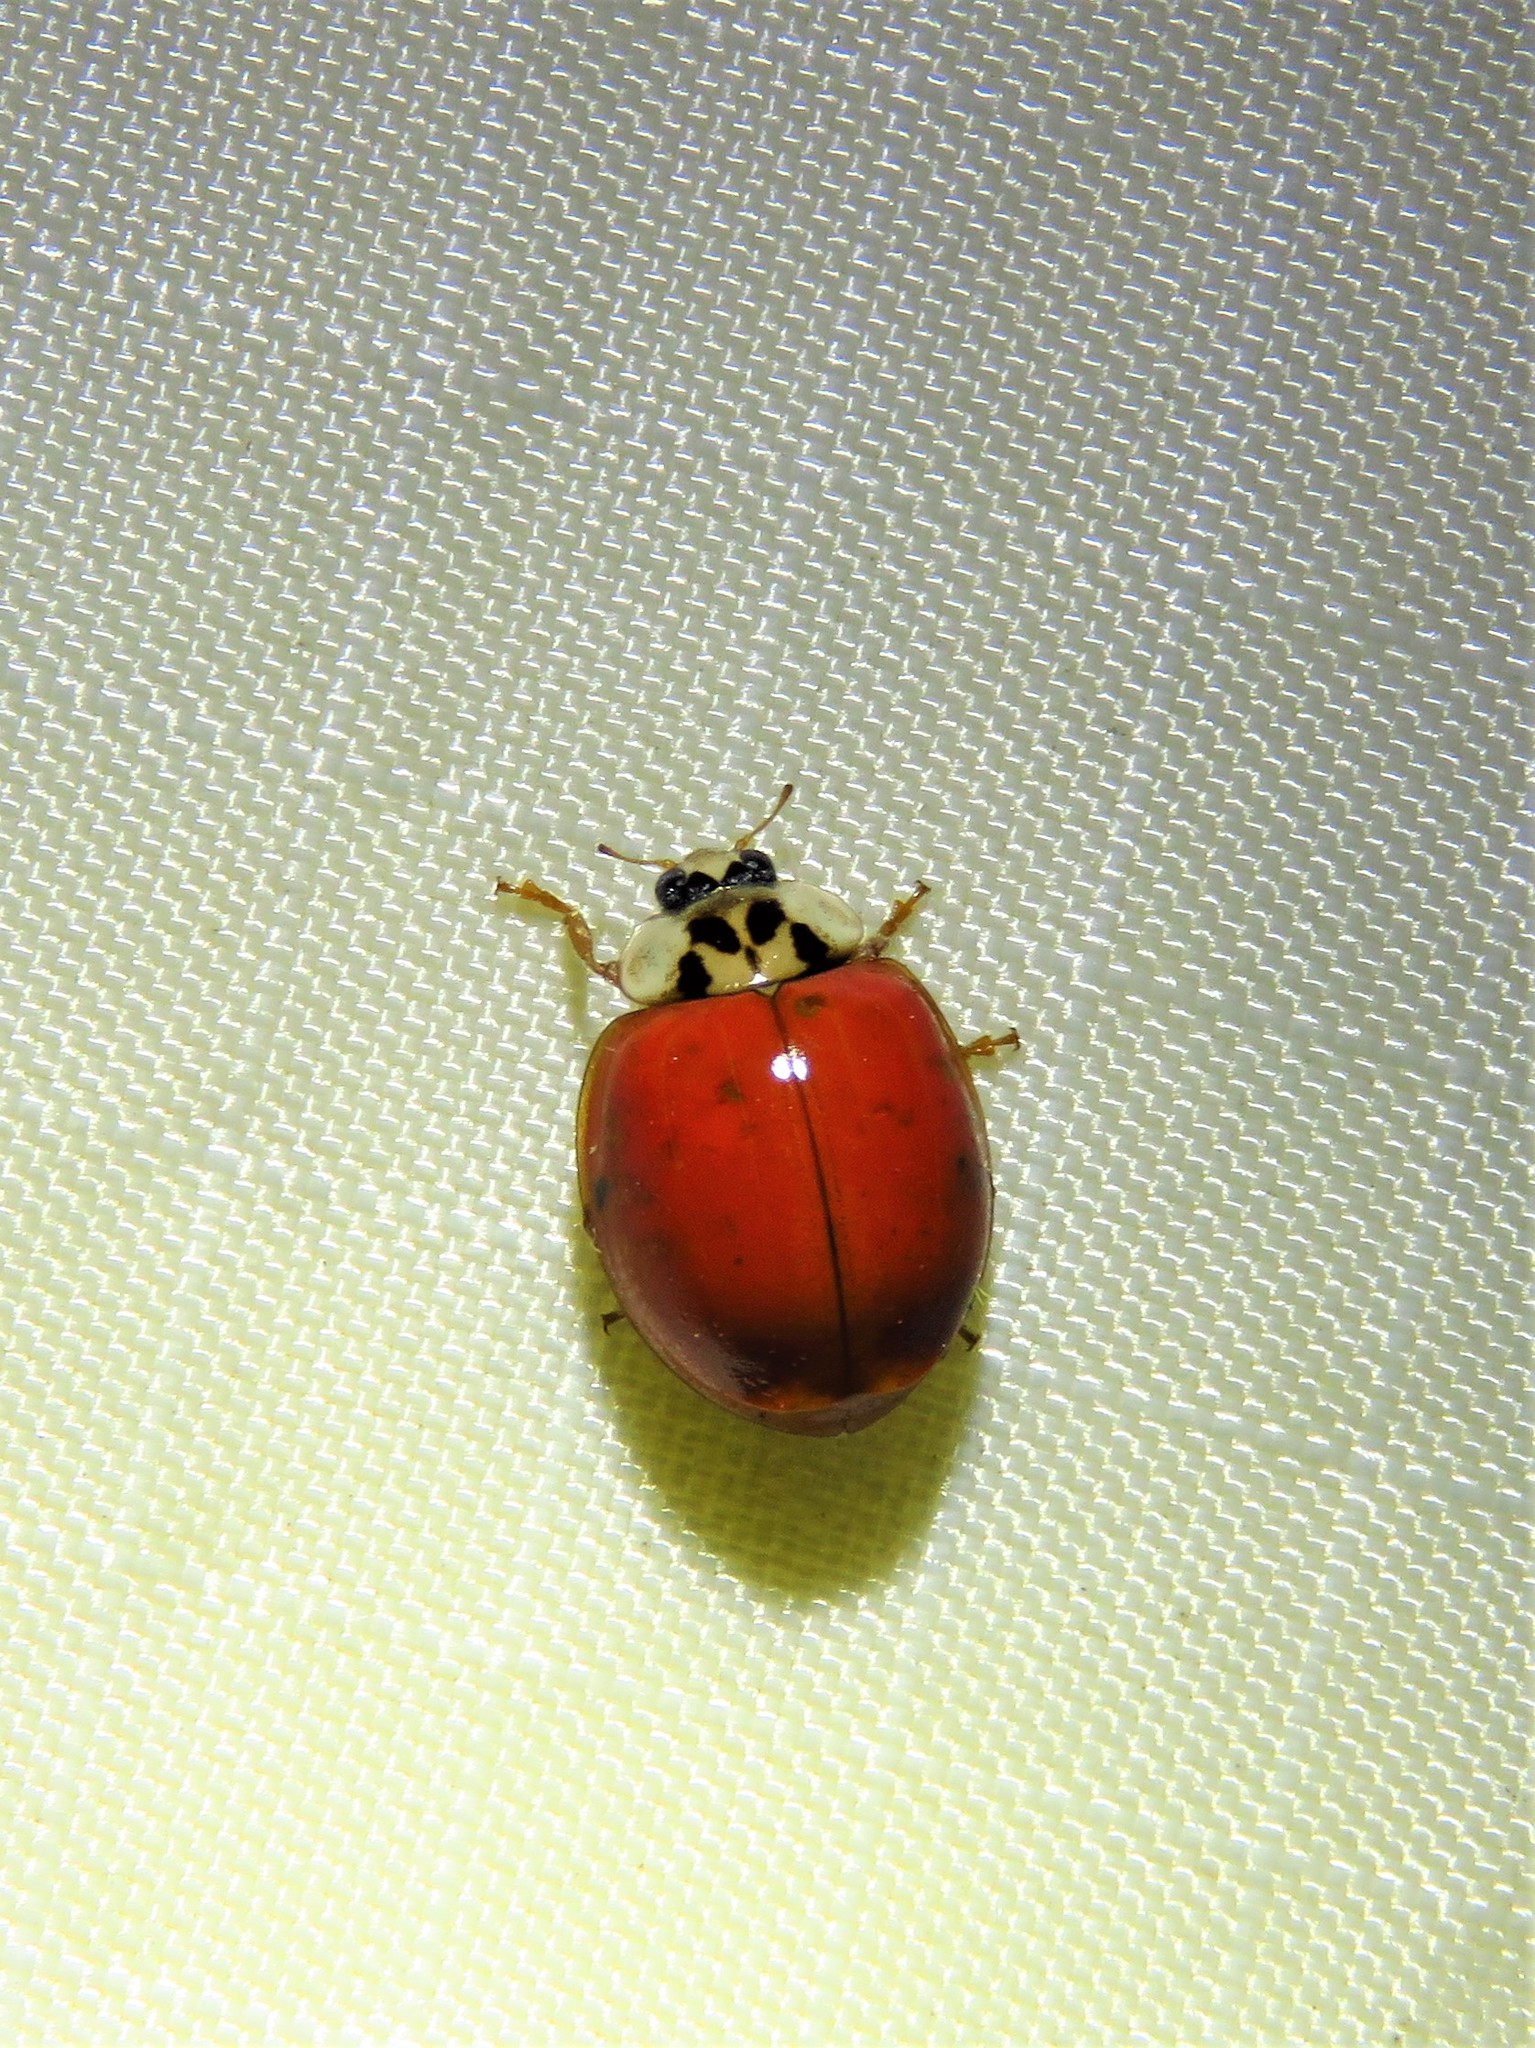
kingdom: Animalia
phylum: Arthropoda
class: Insecta
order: Coleoptera
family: Coccinellidae
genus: Harmonia
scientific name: Harmonia axyridis
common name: Harlequin ladybird
